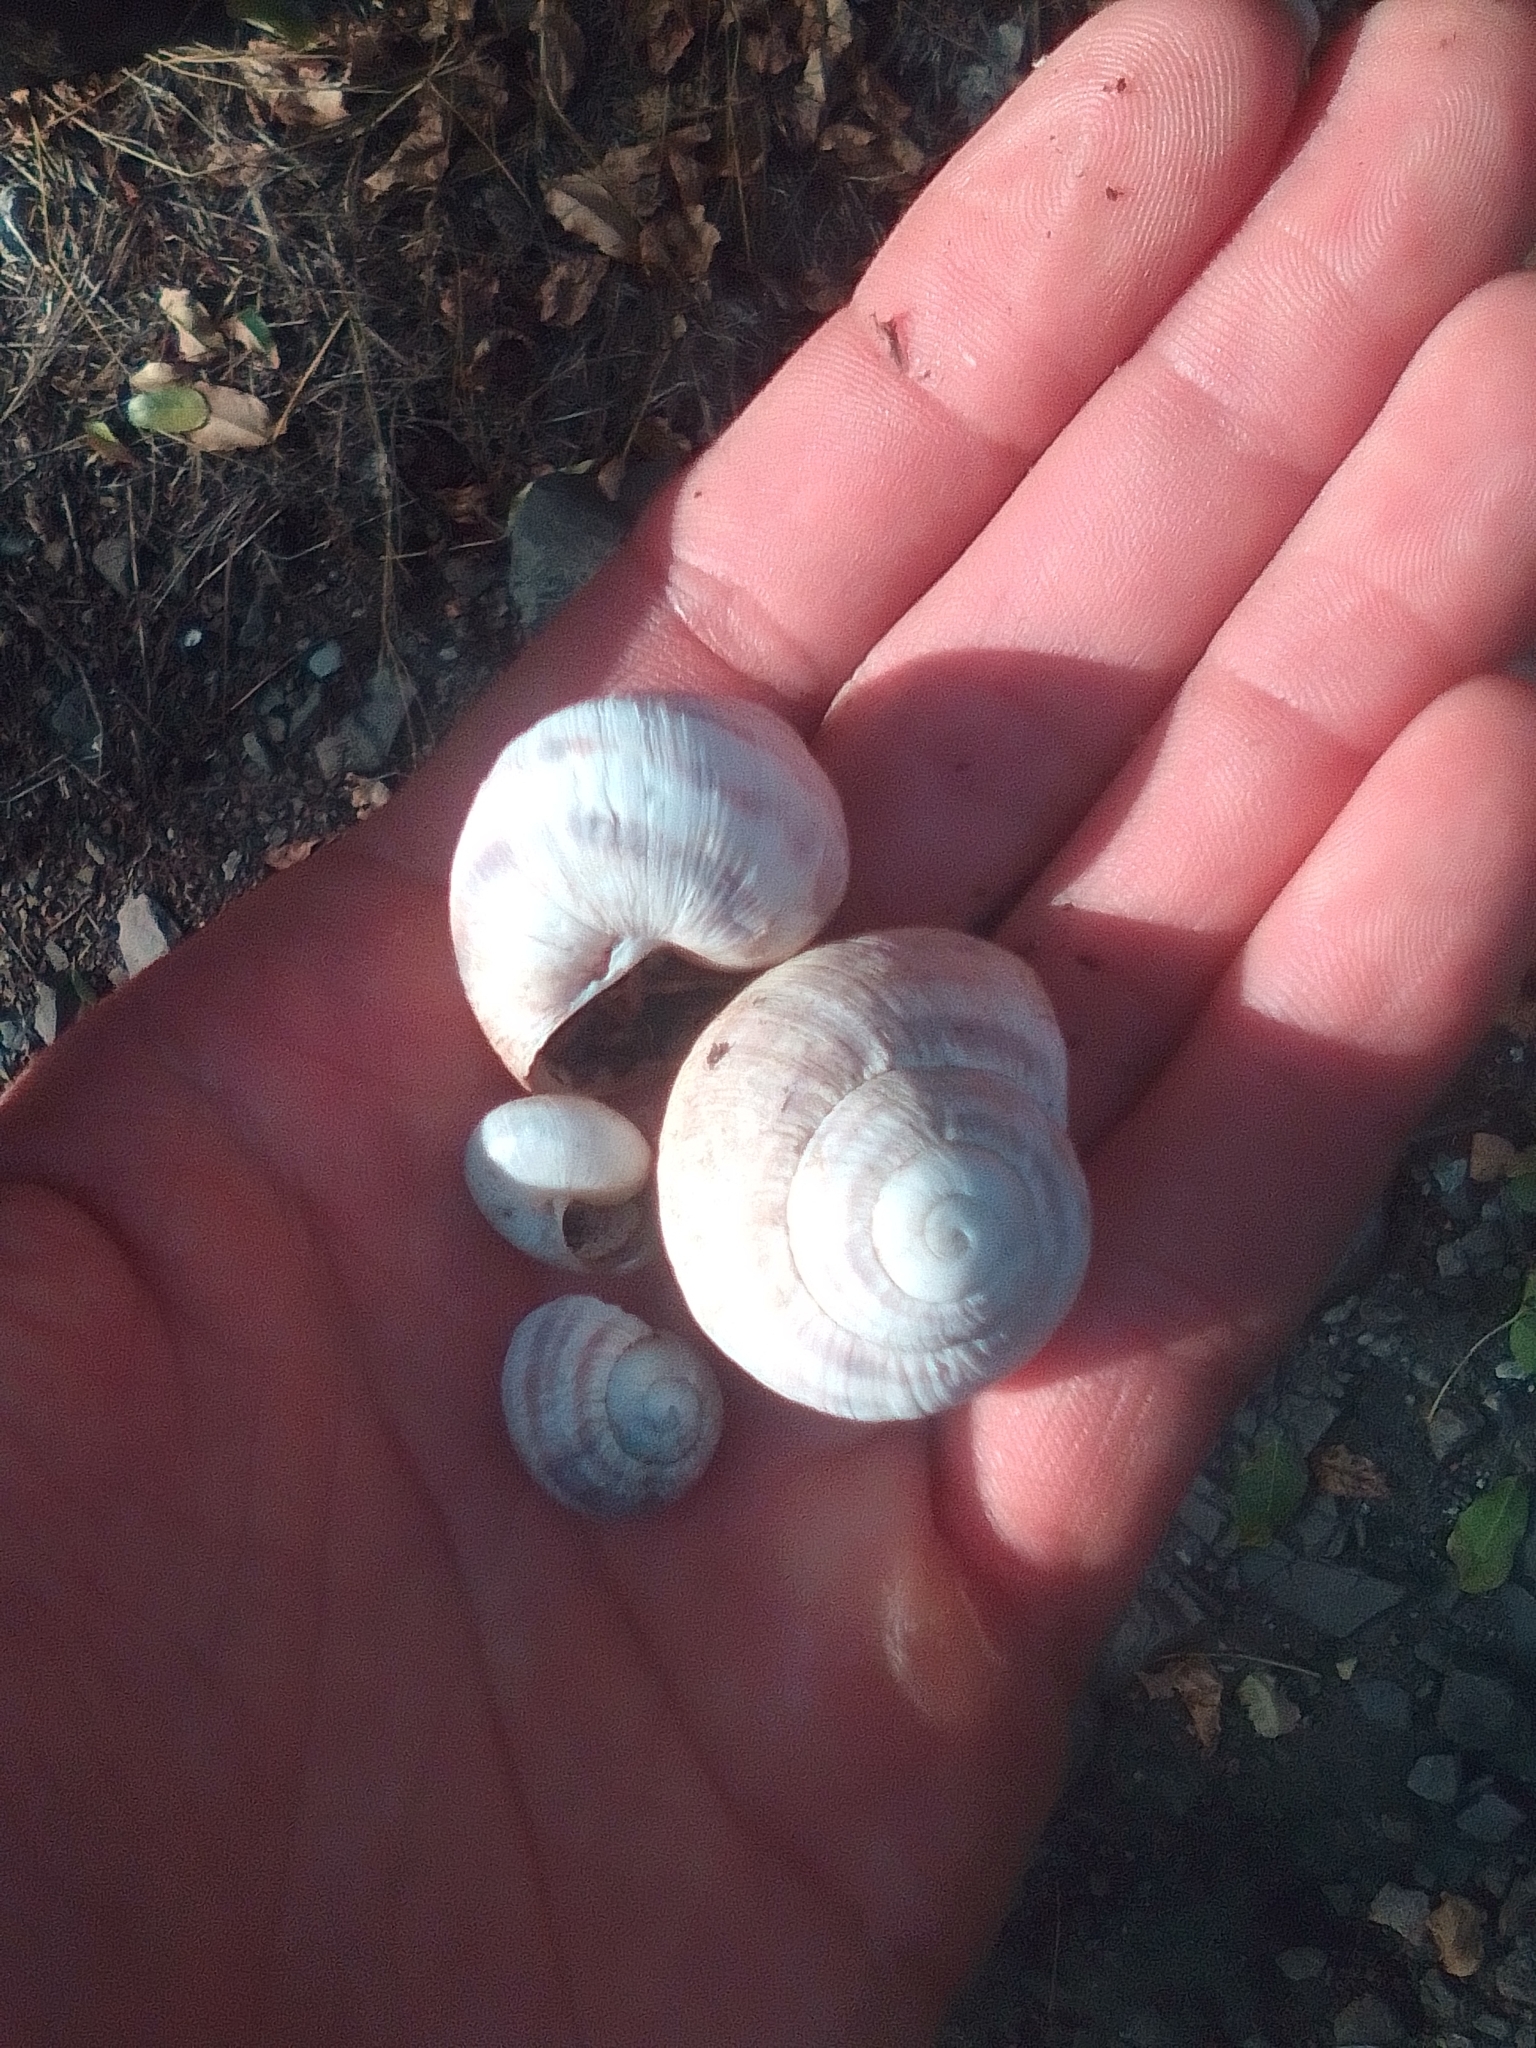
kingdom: Animalia
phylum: Mollusca
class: Gastropoda
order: Stylommatophora
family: Helicidae
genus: Helix
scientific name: Helix albescens
